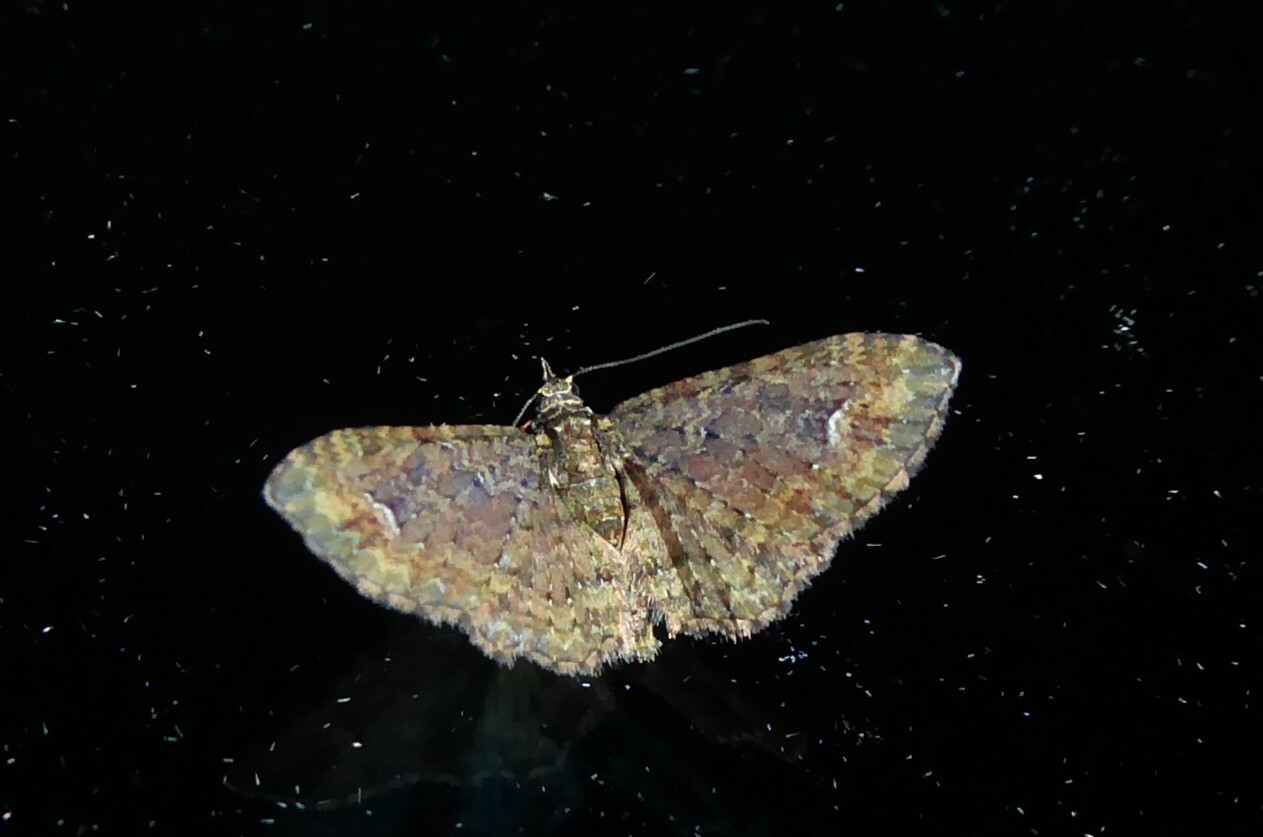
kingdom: Animalia
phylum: Arthropoda
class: Insecta
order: Lepidoptera
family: Geometridae
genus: Pasiphilodes
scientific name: Pasiphilodes testulata
